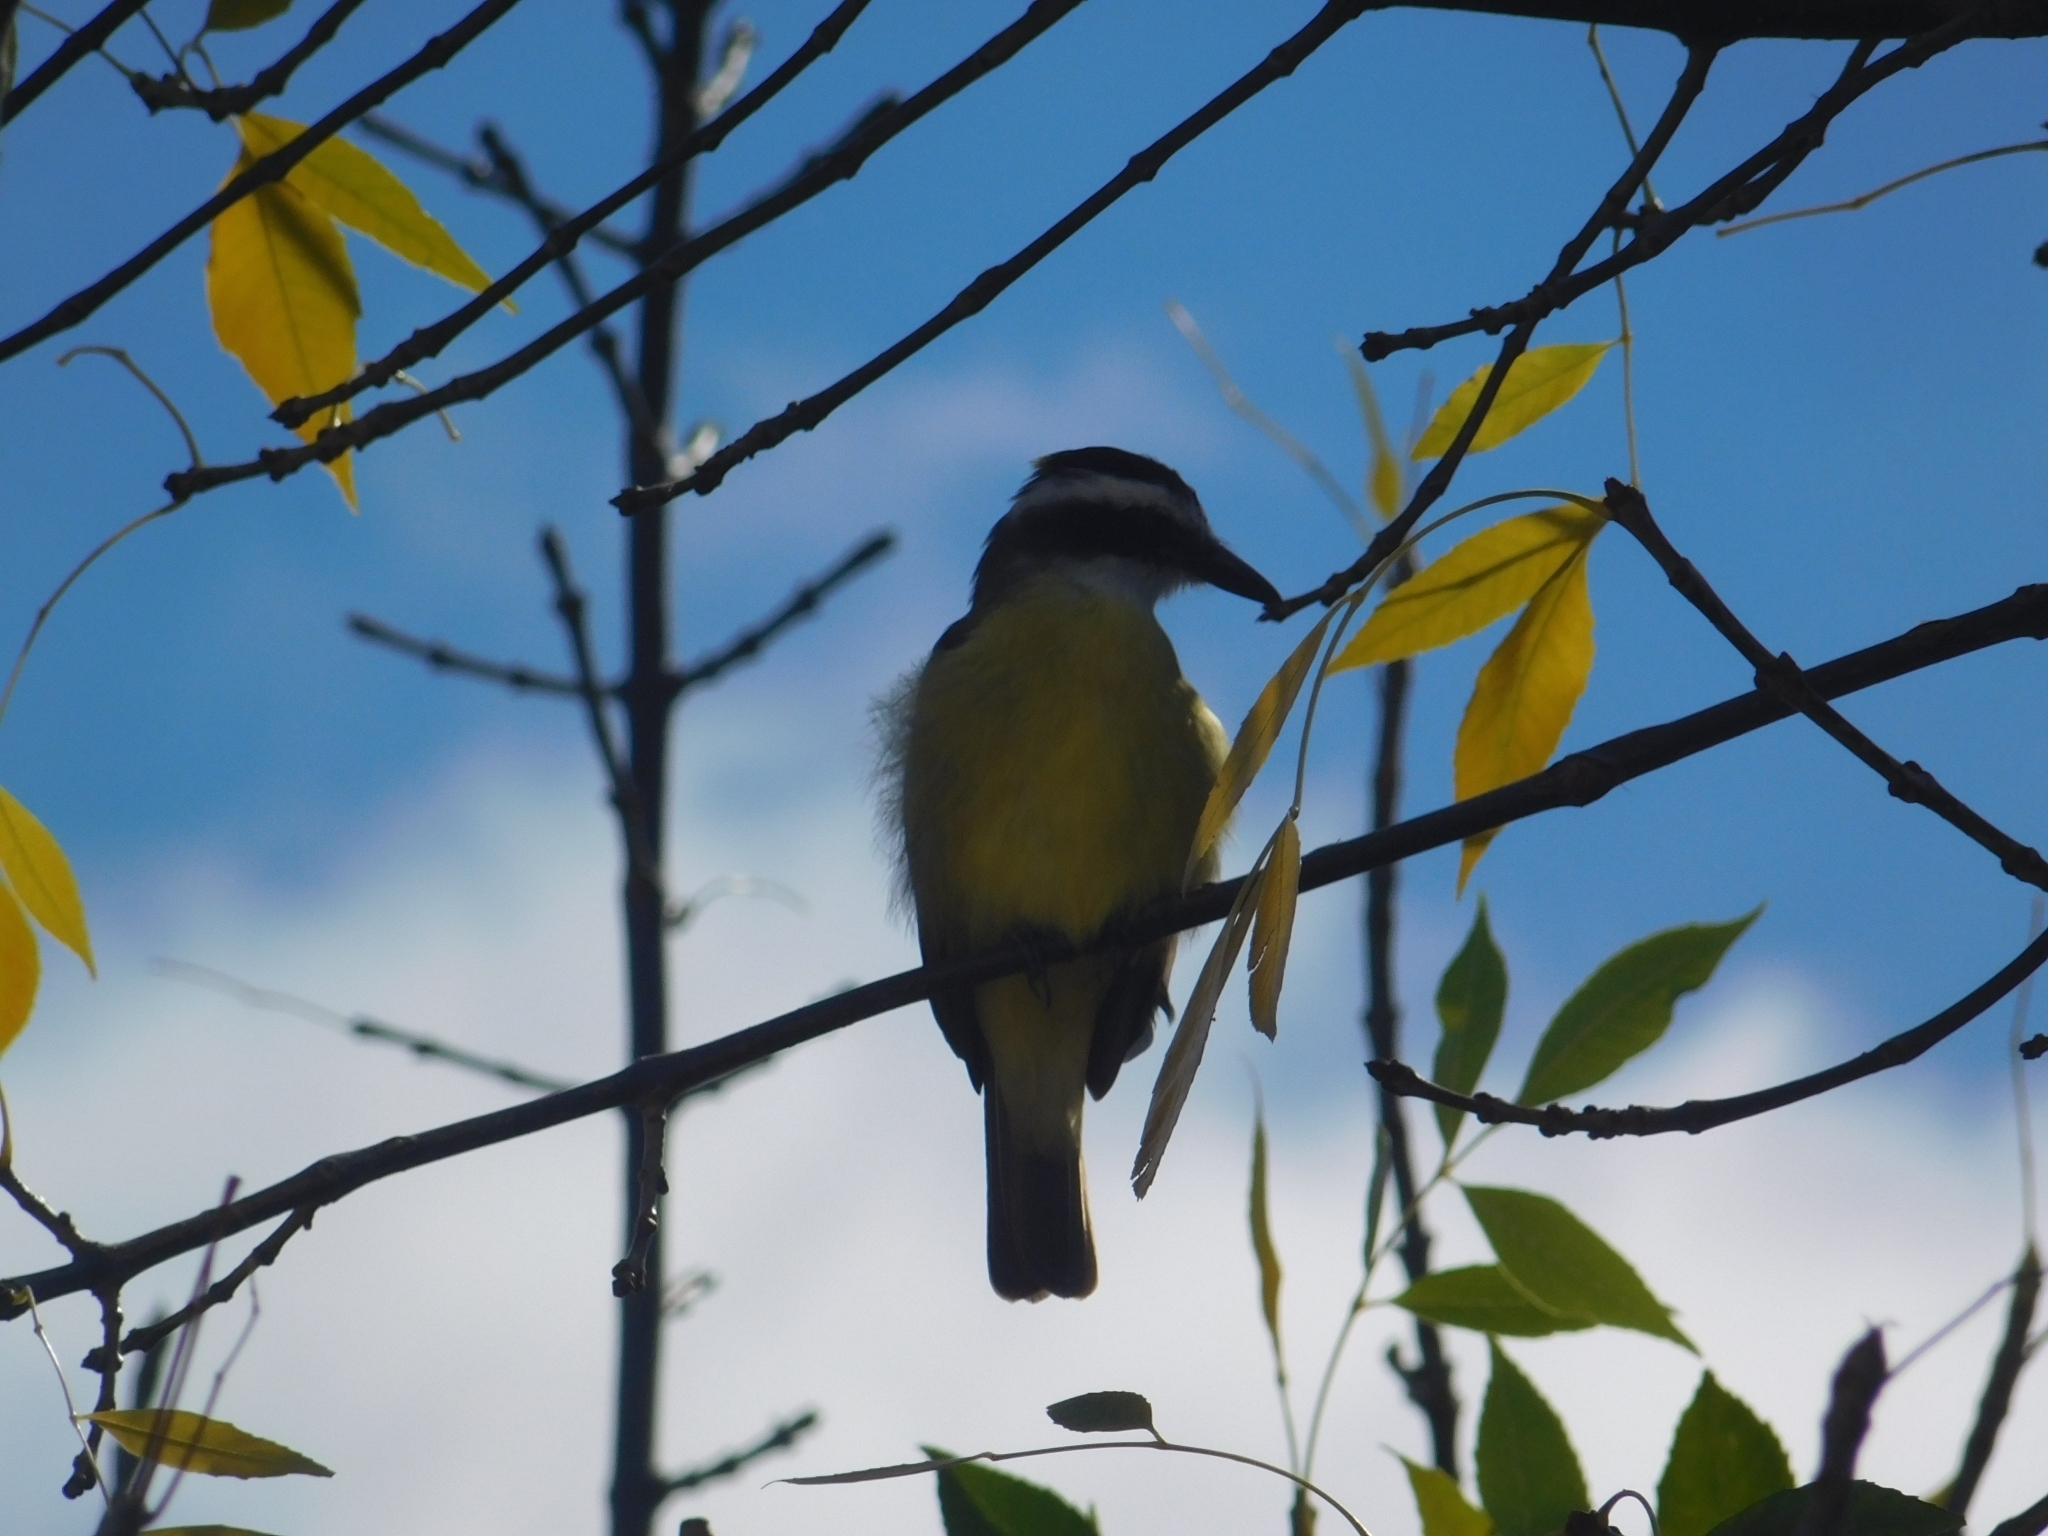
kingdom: Animalia
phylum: Chordata
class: Aves
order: Passeriformes
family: Tyrannidae
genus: Pitangus
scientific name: Pitangus sulphuratus
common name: Great kiskadee
